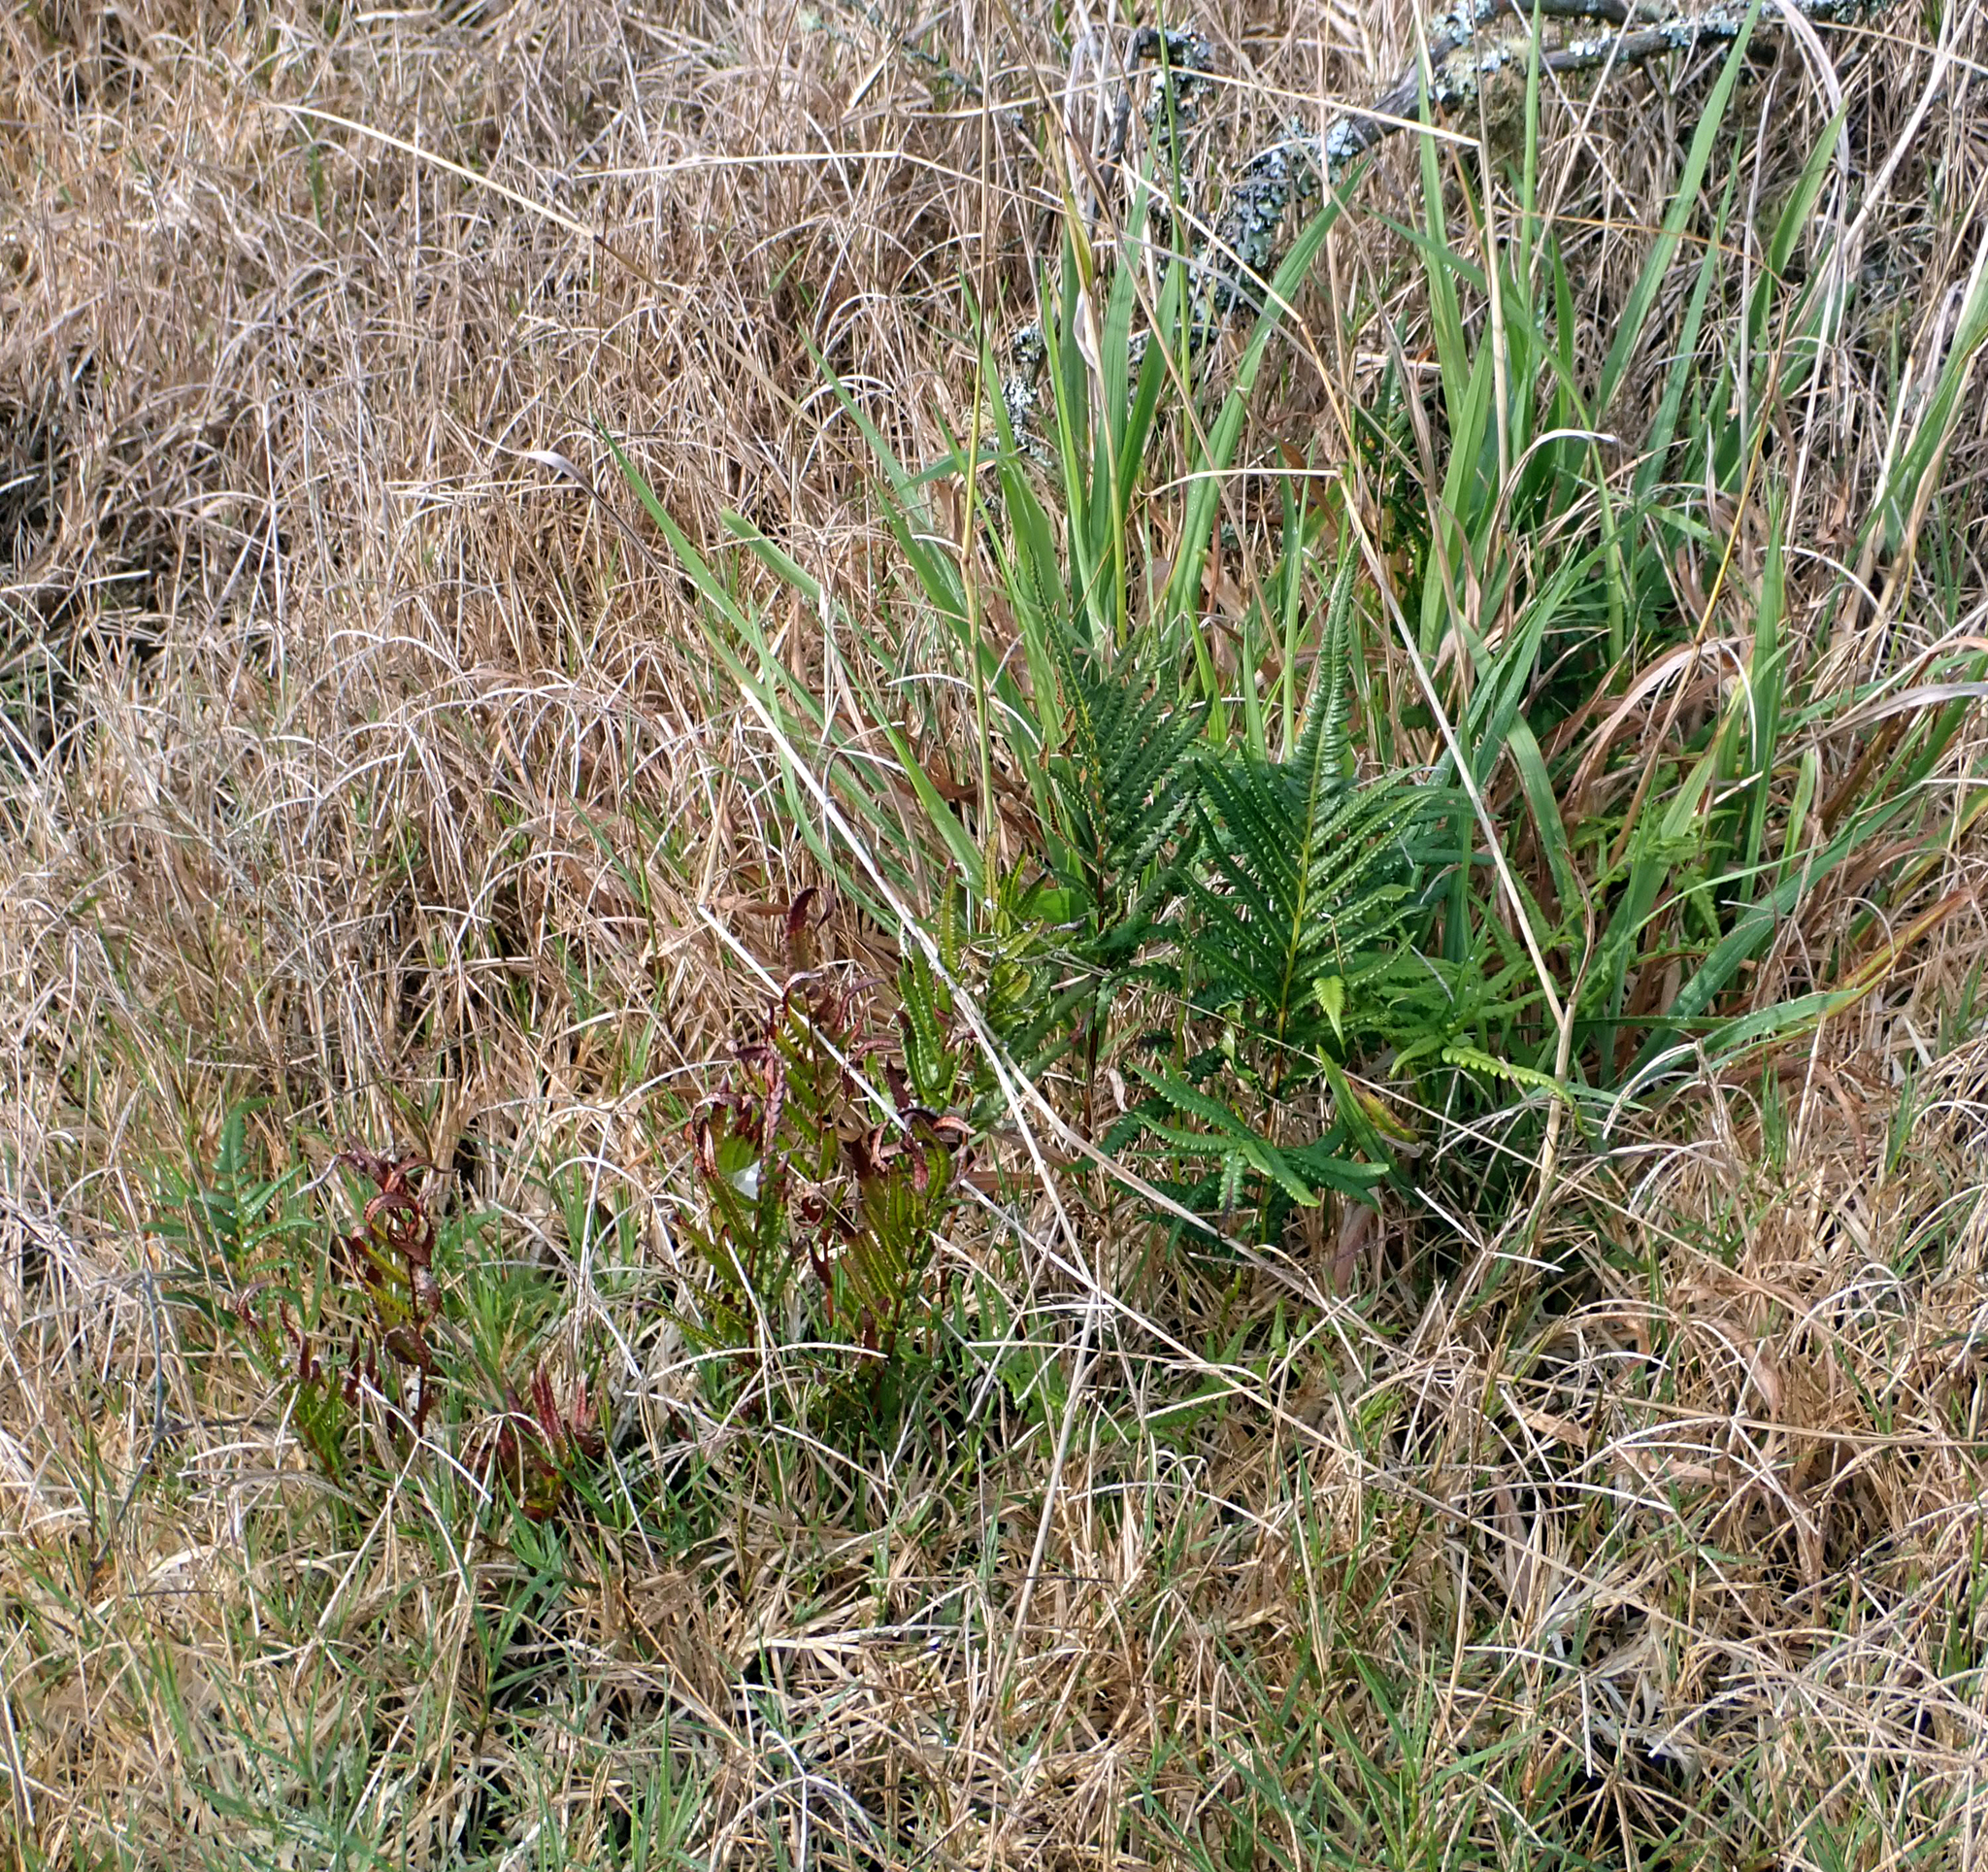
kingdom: Plantae
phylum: Tracheophyta
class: Polypodiopsida
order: Polypodiales
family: Thelypteridaceae
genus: Cyclosorus
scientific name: Cyclosorus interruptus
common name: Neke fern
